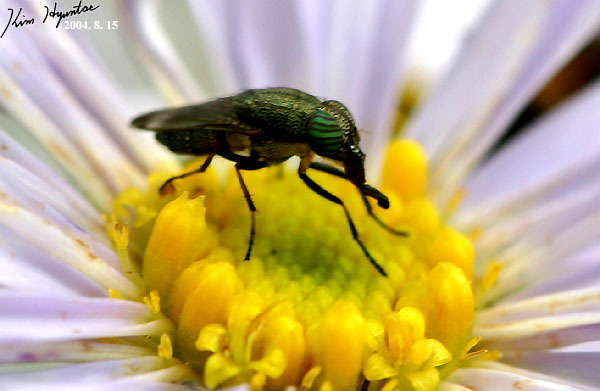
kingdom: Animalia
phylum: Arthropoda
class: Insecta
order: Diptera
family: Calliphoridae
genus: Rhinia
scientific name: Rhinia obsoleta
